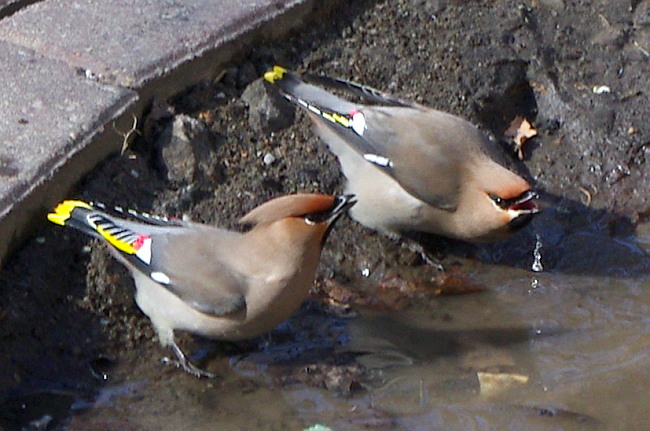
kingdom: Animalia
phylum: Chordata
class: Aves
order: Passeriformes
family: Bombycillidae
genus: Bombycilla
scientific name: Bombycilla garrulus
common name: Bohemian waxwing
